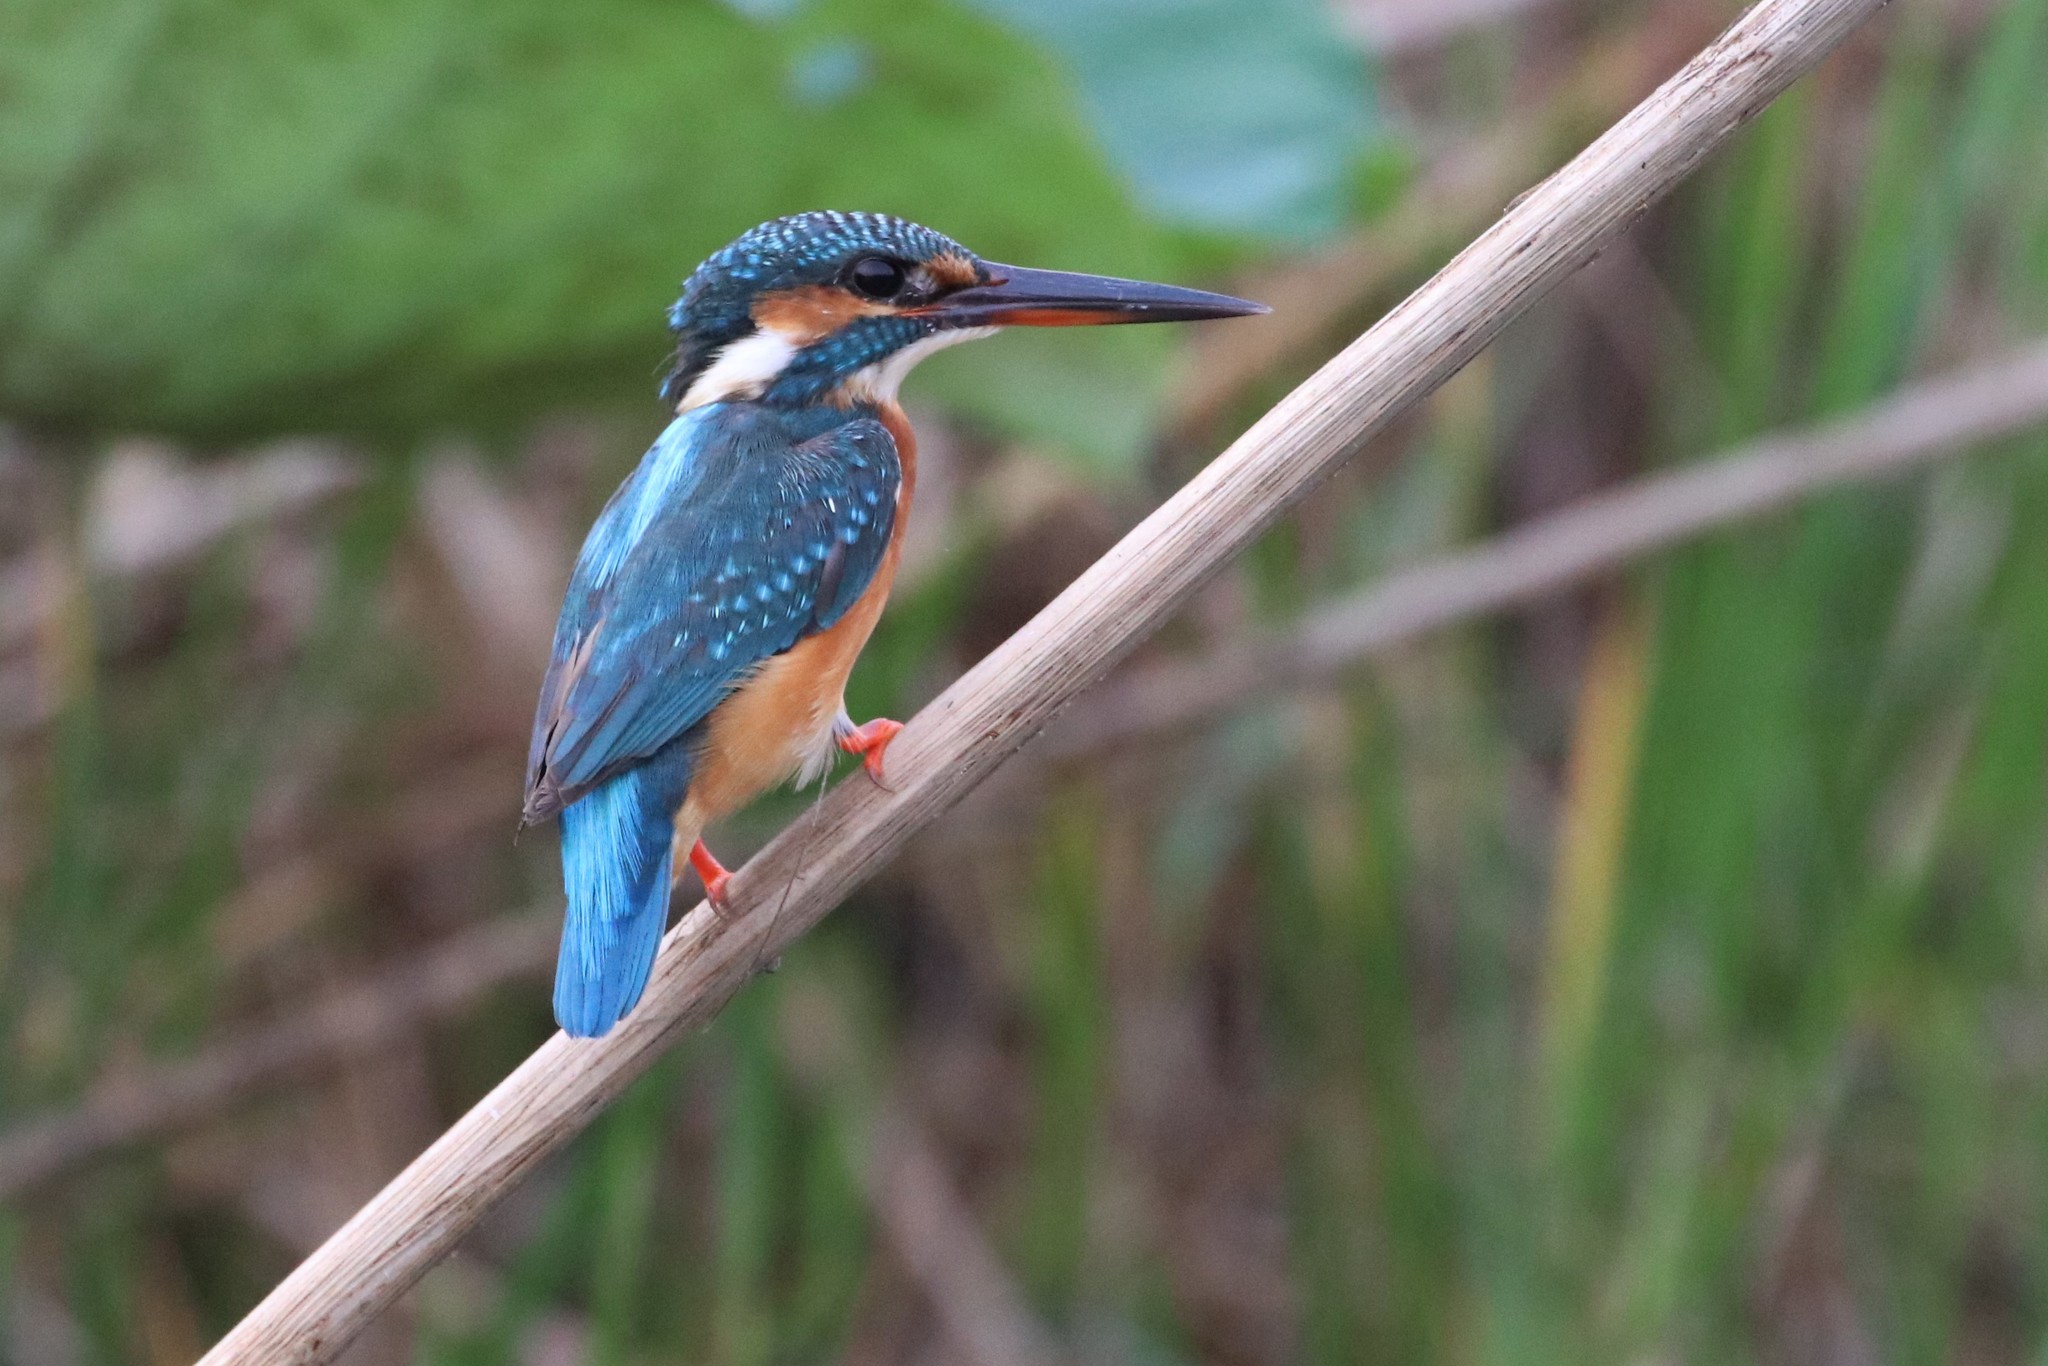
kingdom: Animalia
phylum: Chordata
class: Aves
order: Coraciiformes
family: Alcedinidae
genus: Alcedo
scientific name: Alcedo atthis
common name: Common kingfisher
